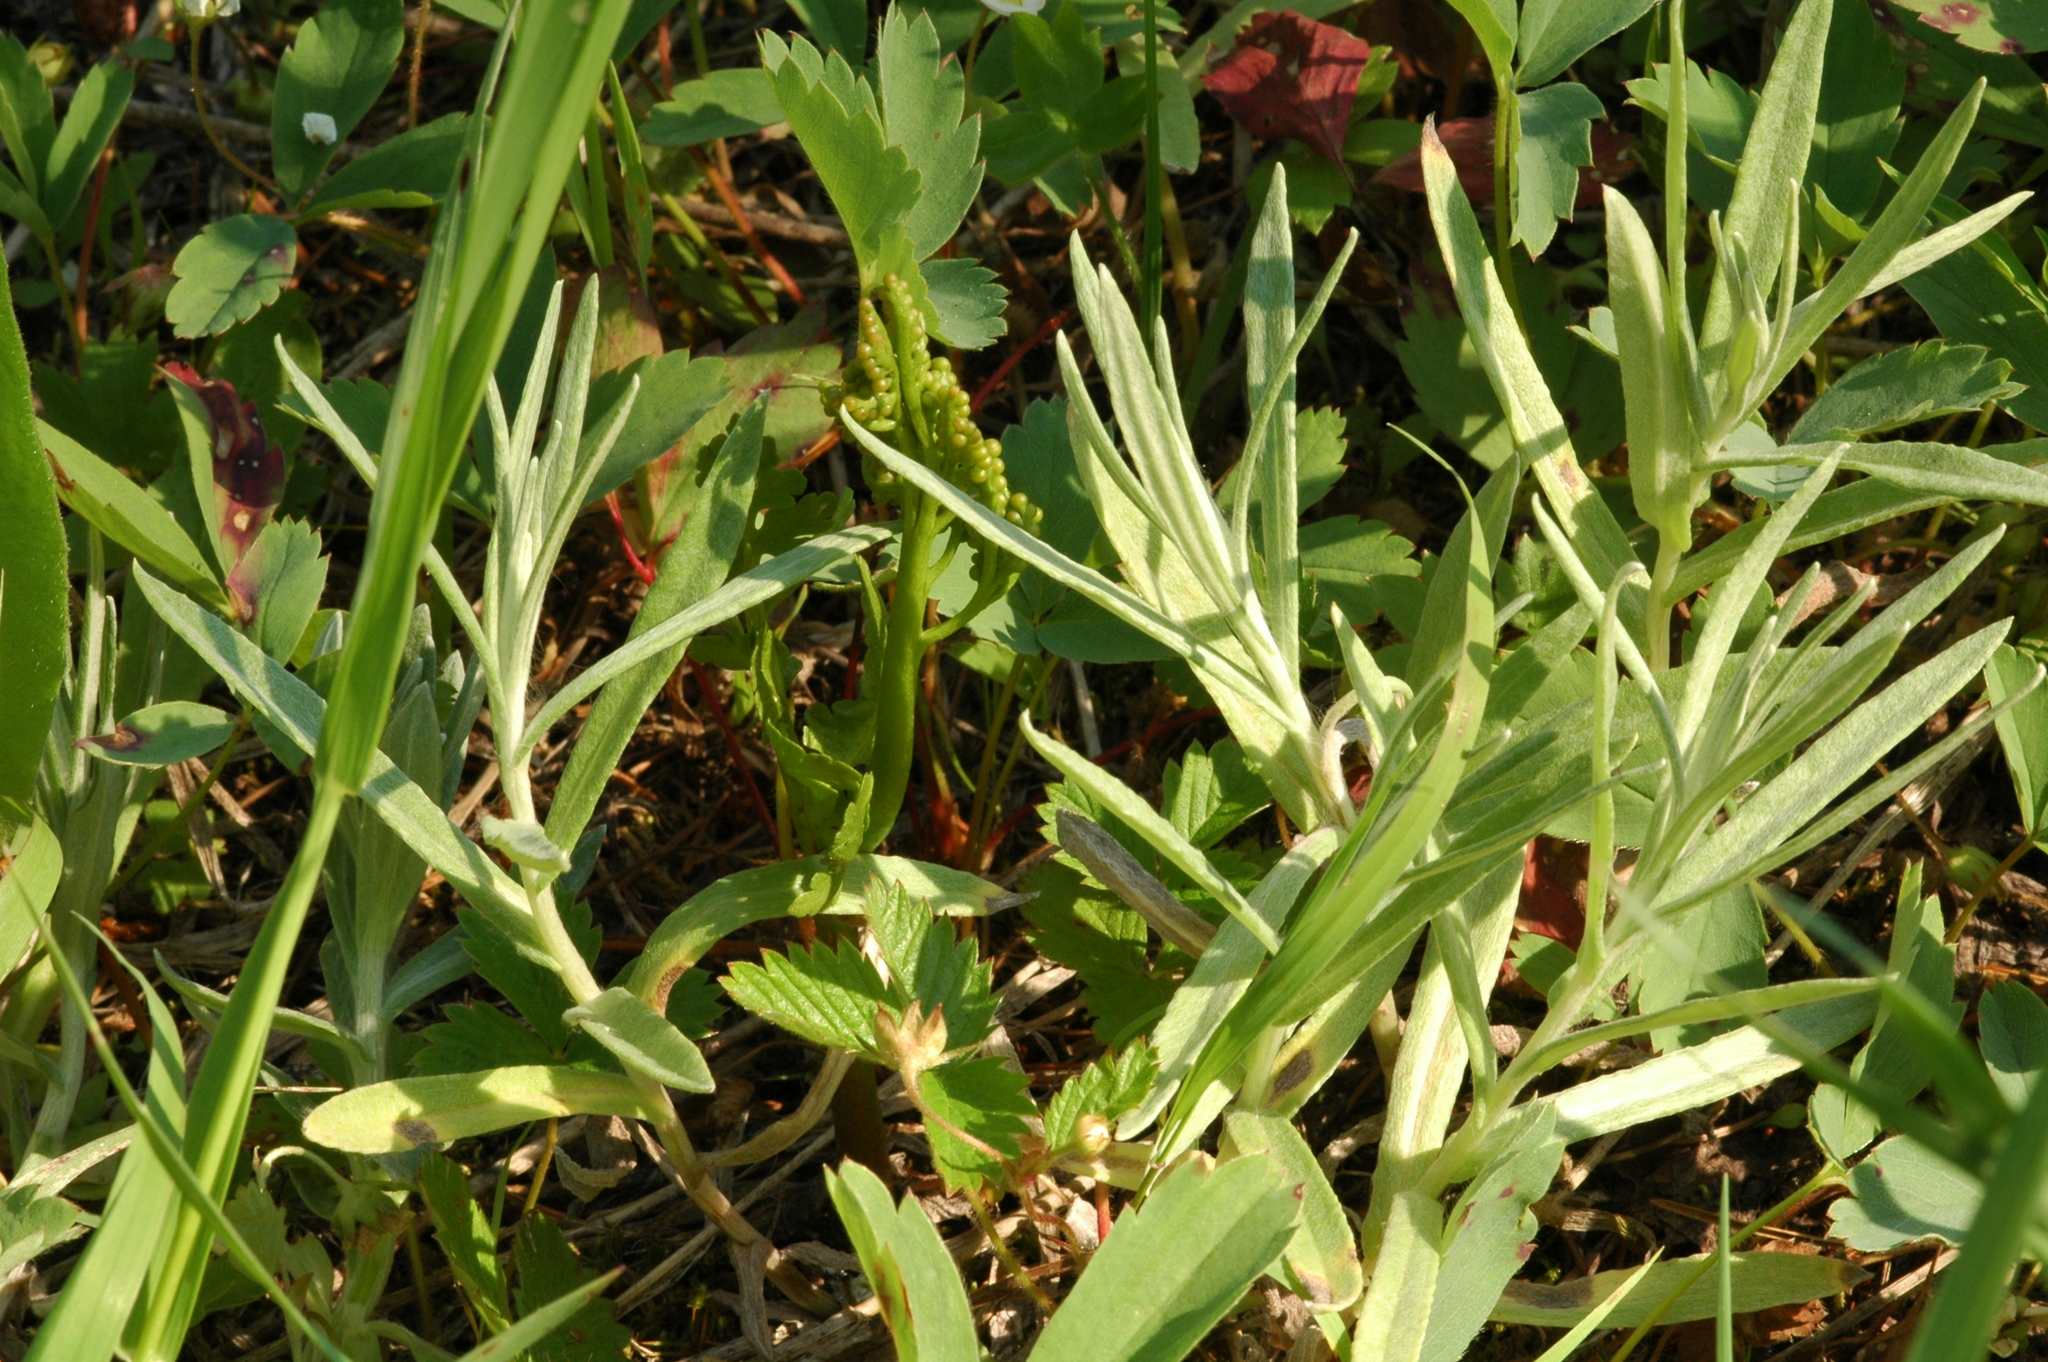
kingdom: Plantae
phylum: Tracheophyta
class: Polypodiopsida
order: Ophioglossales
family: Ophioglossaceae
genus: Botrychium
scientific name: Botrychium pinnatum
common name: Northwestern moonwort
